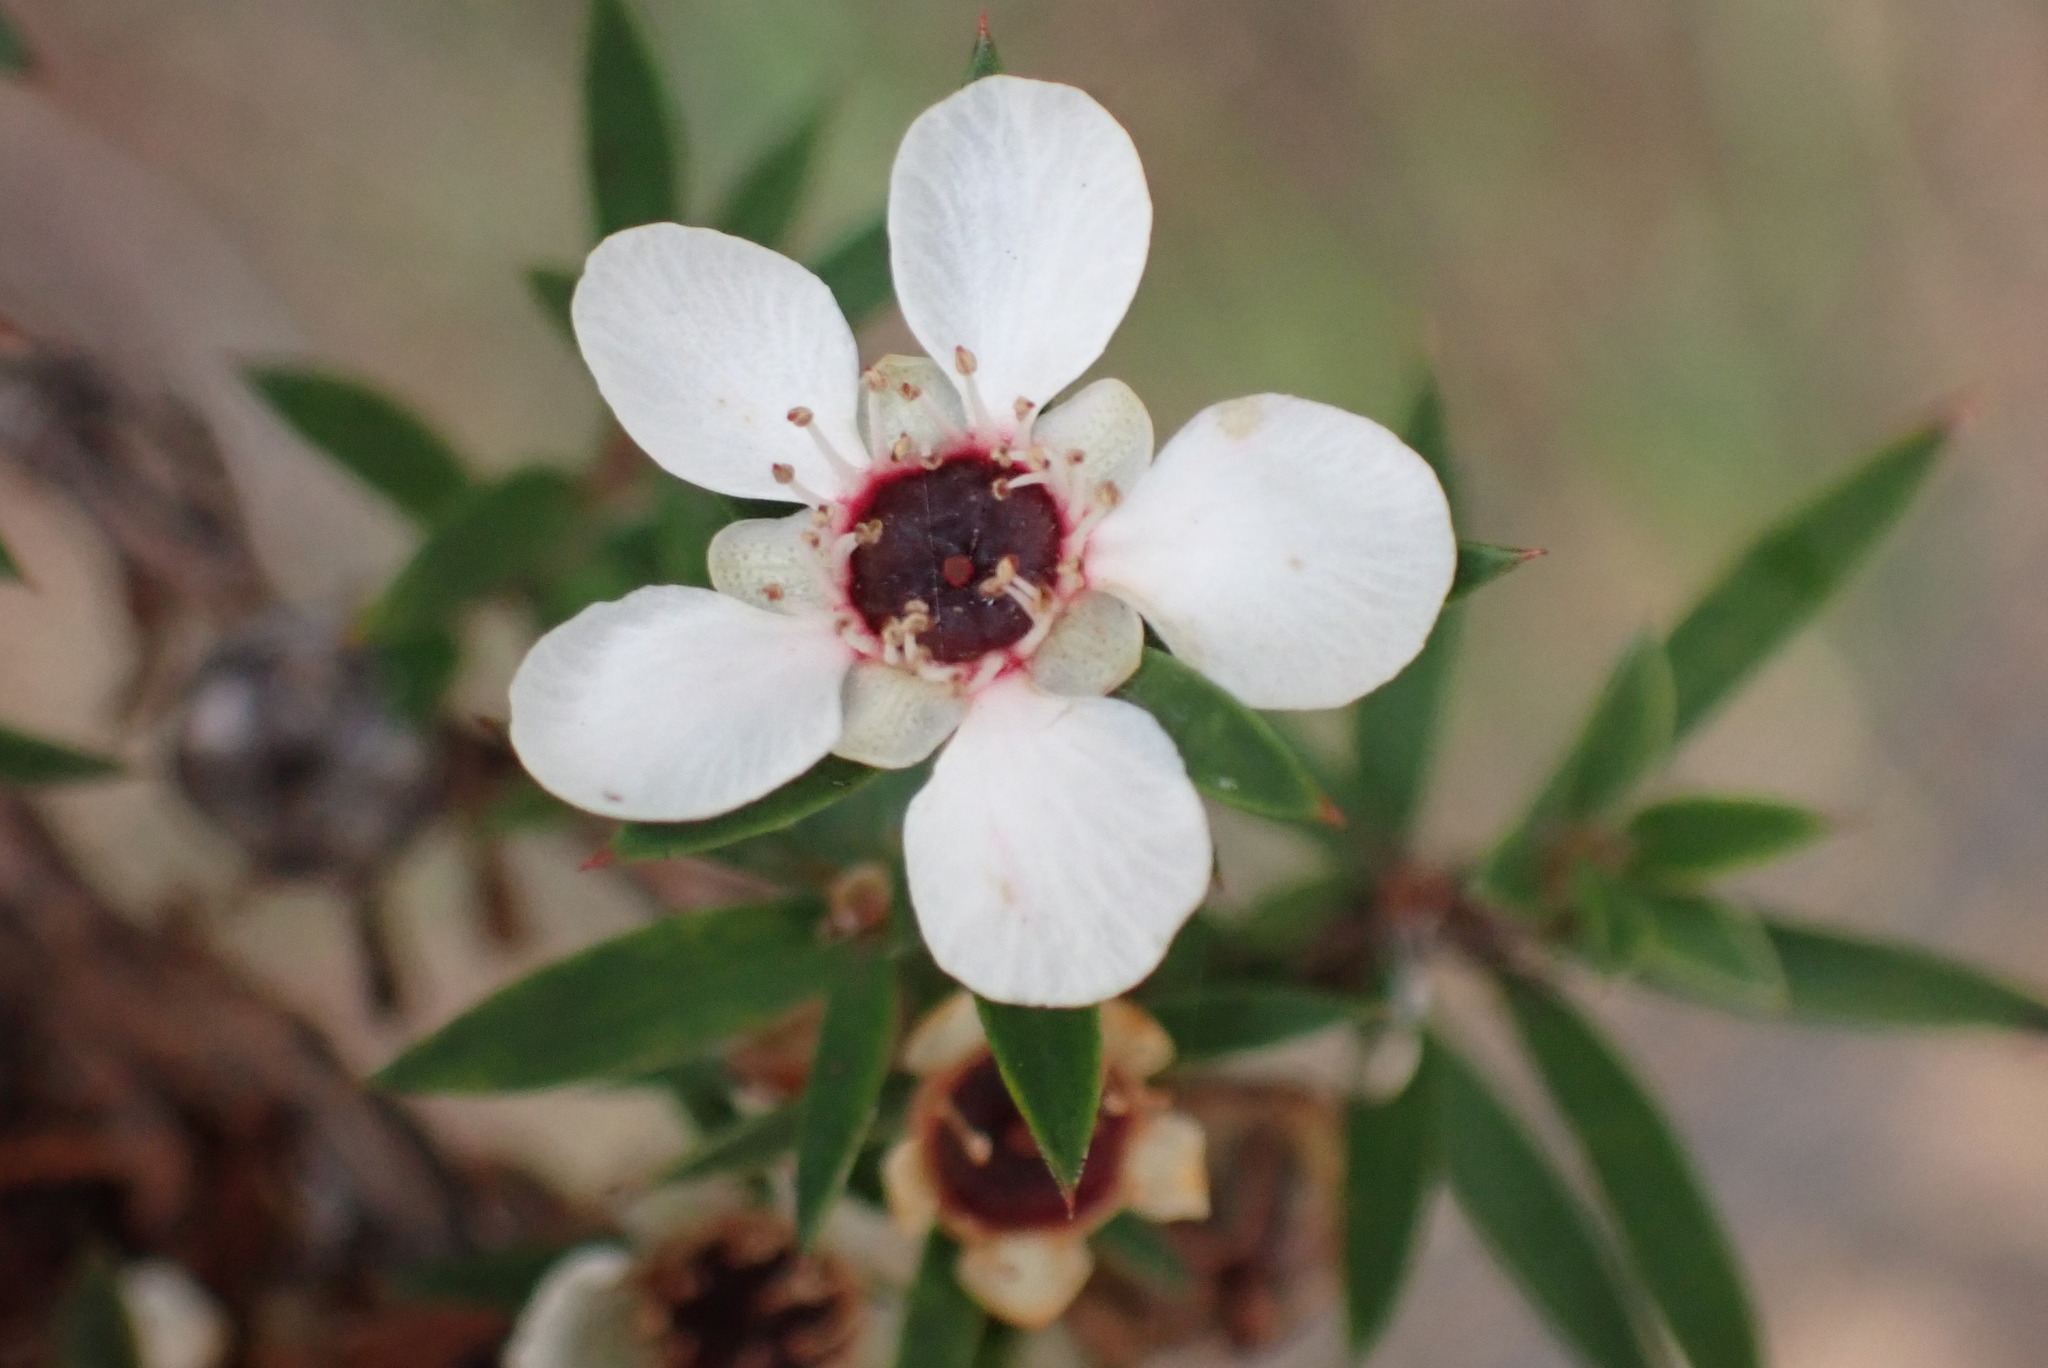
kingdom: Plantae
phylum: Tracheophyta
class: Magnoliopsida
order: Myrtales
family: Myrtaceae
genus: Leptospermum
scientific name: Leptospermum scoparium
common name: Broom tea-tree
